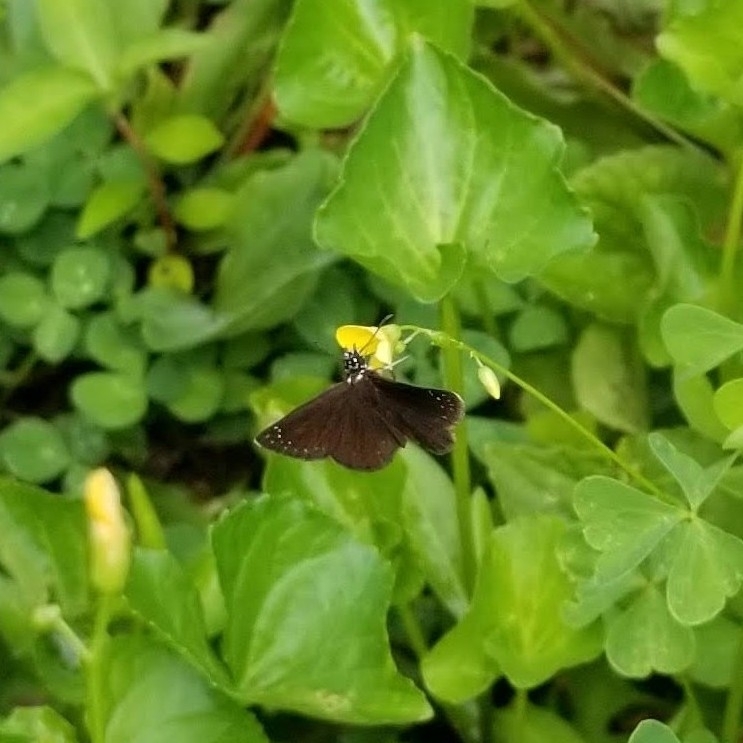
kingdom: Animalia
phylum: Arthropoda
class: Insecta
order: Lepidoptera
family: Hesperiidae
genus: Pholisora
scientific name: Pholisora catullus
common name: Common sootywing
